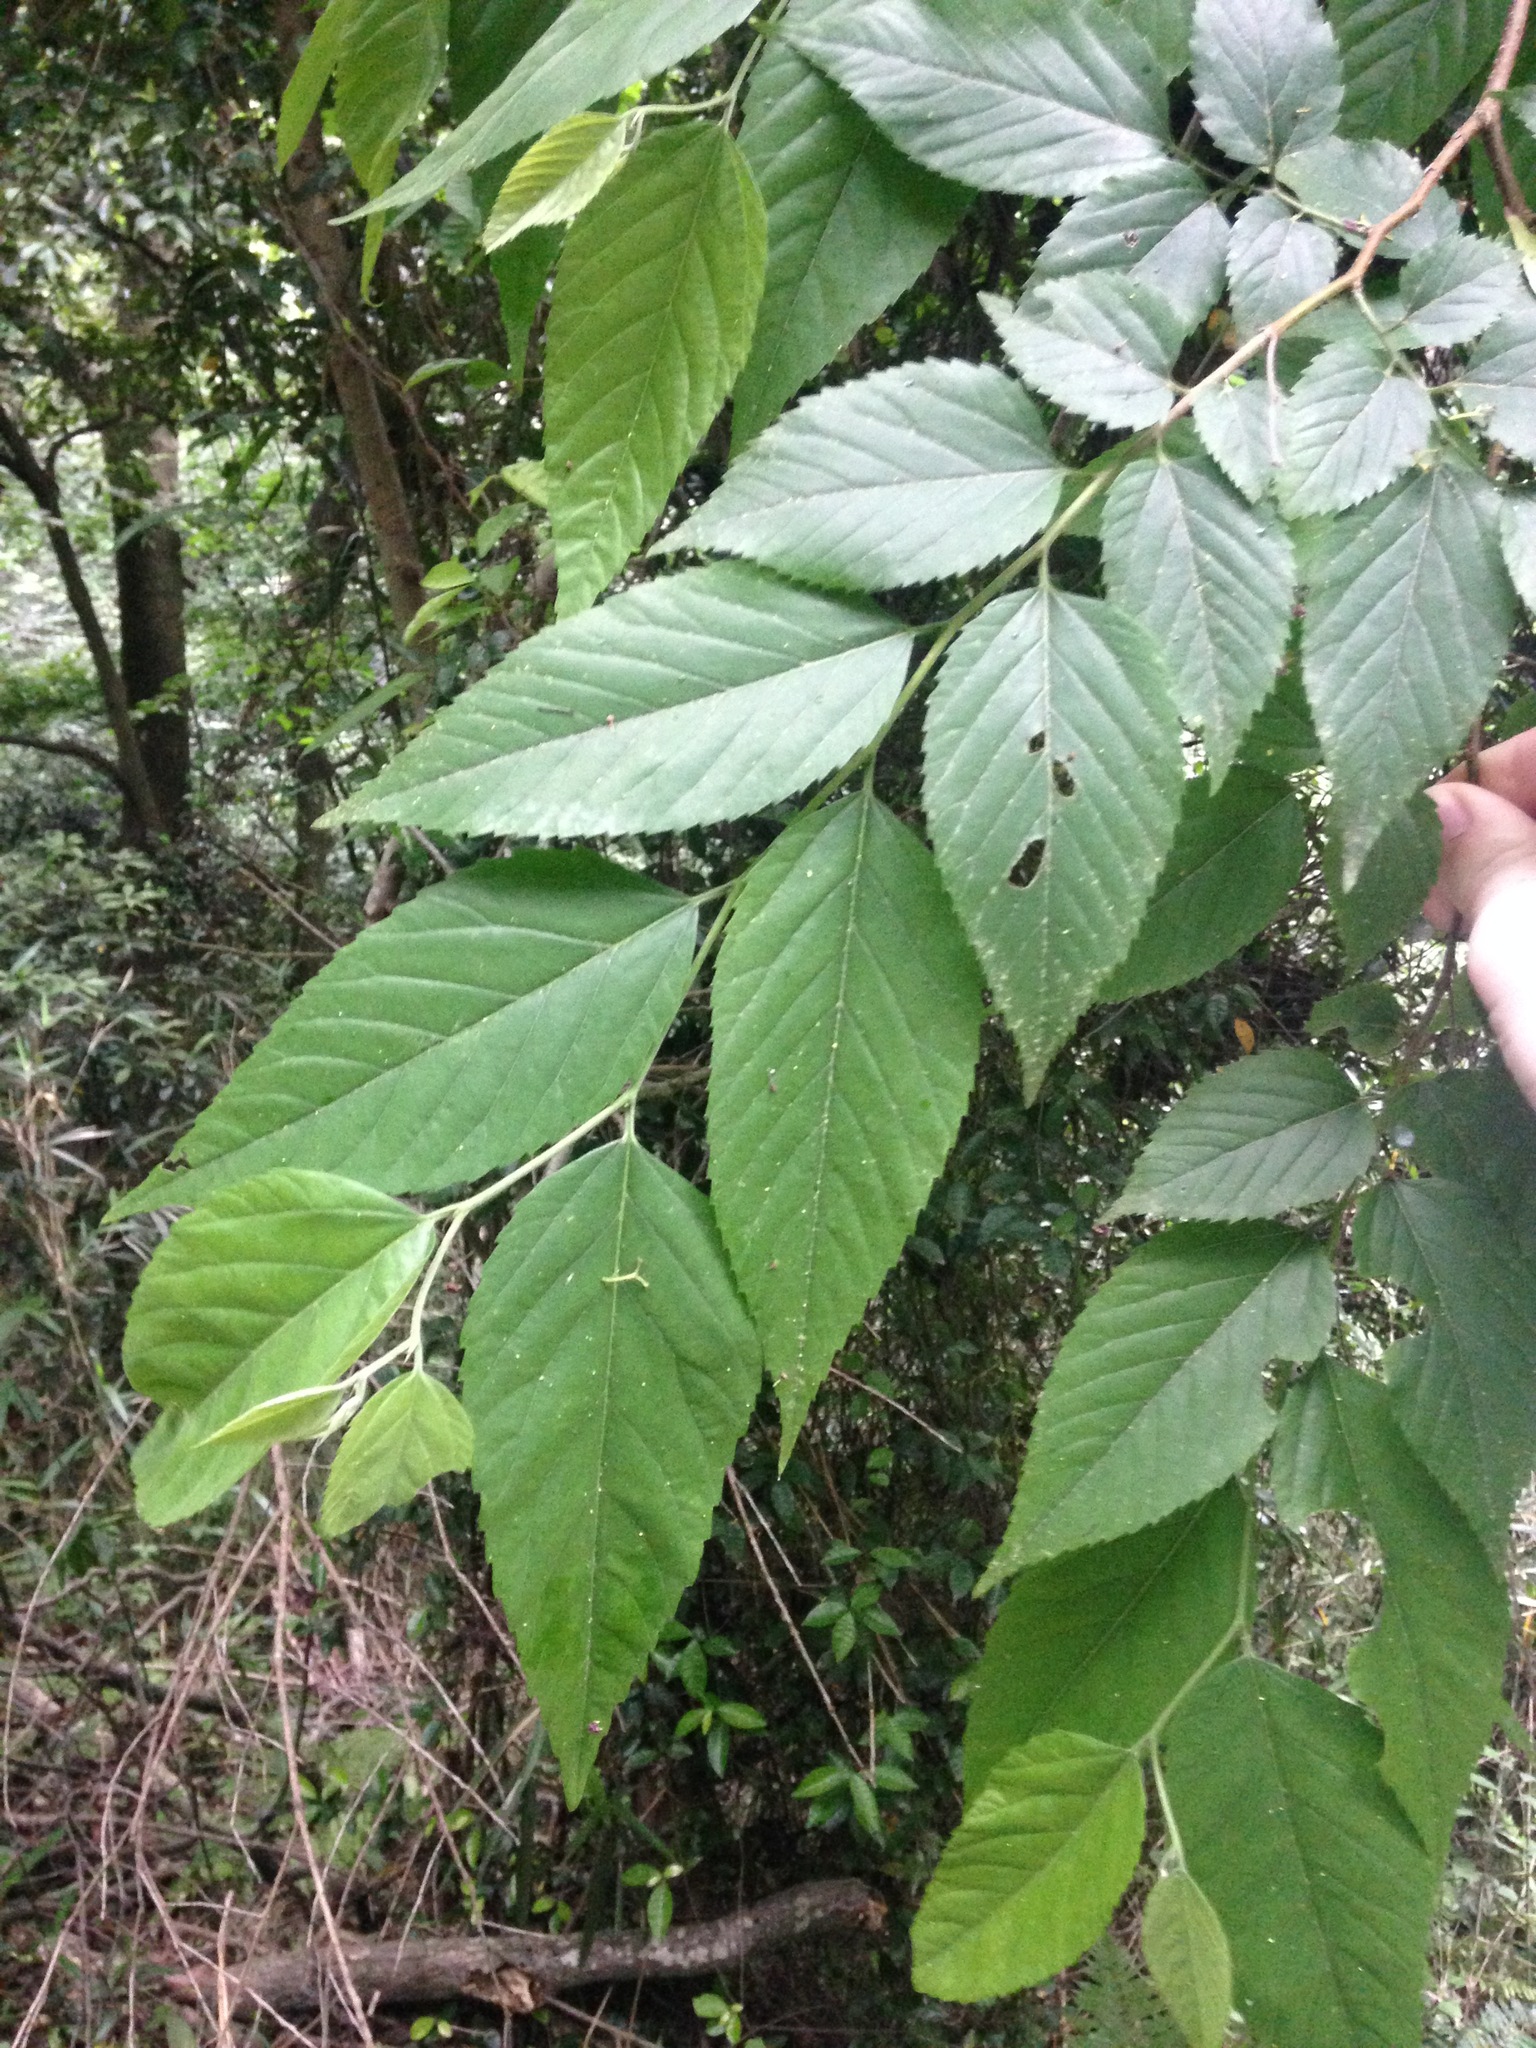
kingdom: Plantae
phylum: Tracheophyta
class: Magnoliopsida
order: Rosales
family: Cannabaceae
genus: Aphananthe
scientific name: Aphananthe aspera
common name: Mukutree
